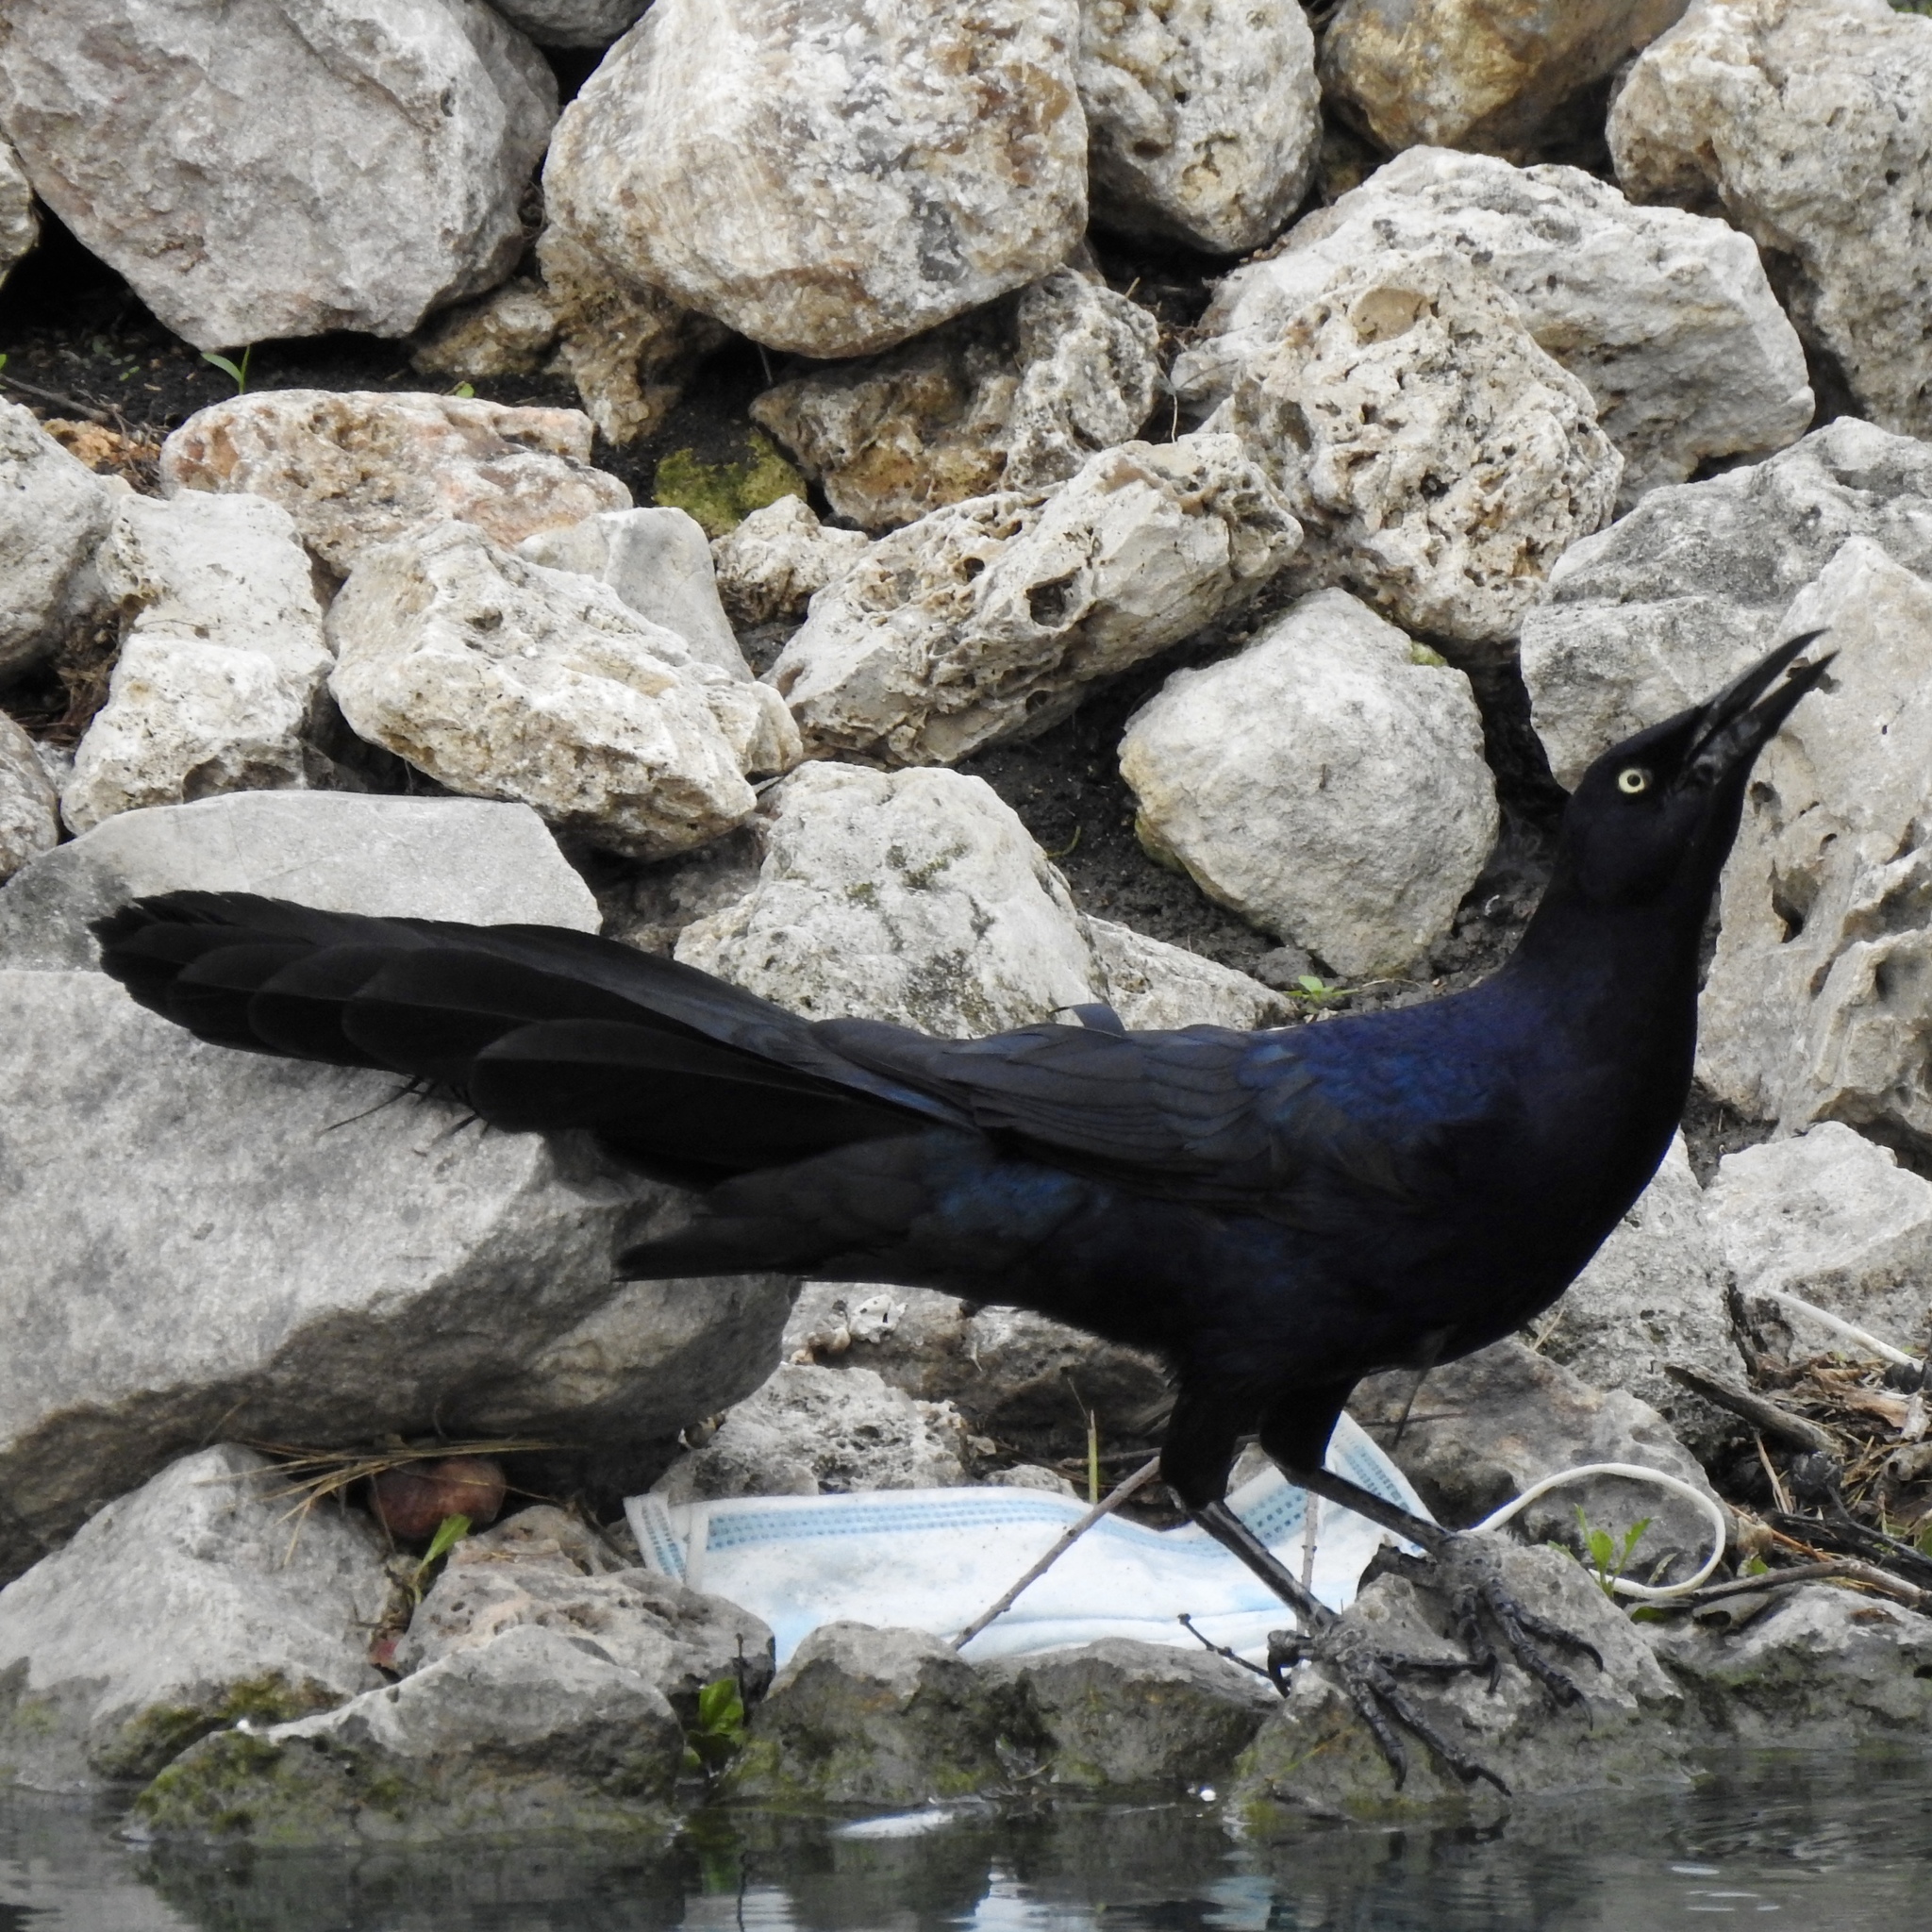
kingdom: Animalia
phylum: Chordata
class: Aves
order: Passeriformes
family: Icteridae
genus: Quiscalus
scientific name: Quiscalus mexicanus
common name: Great-tailed grackle
